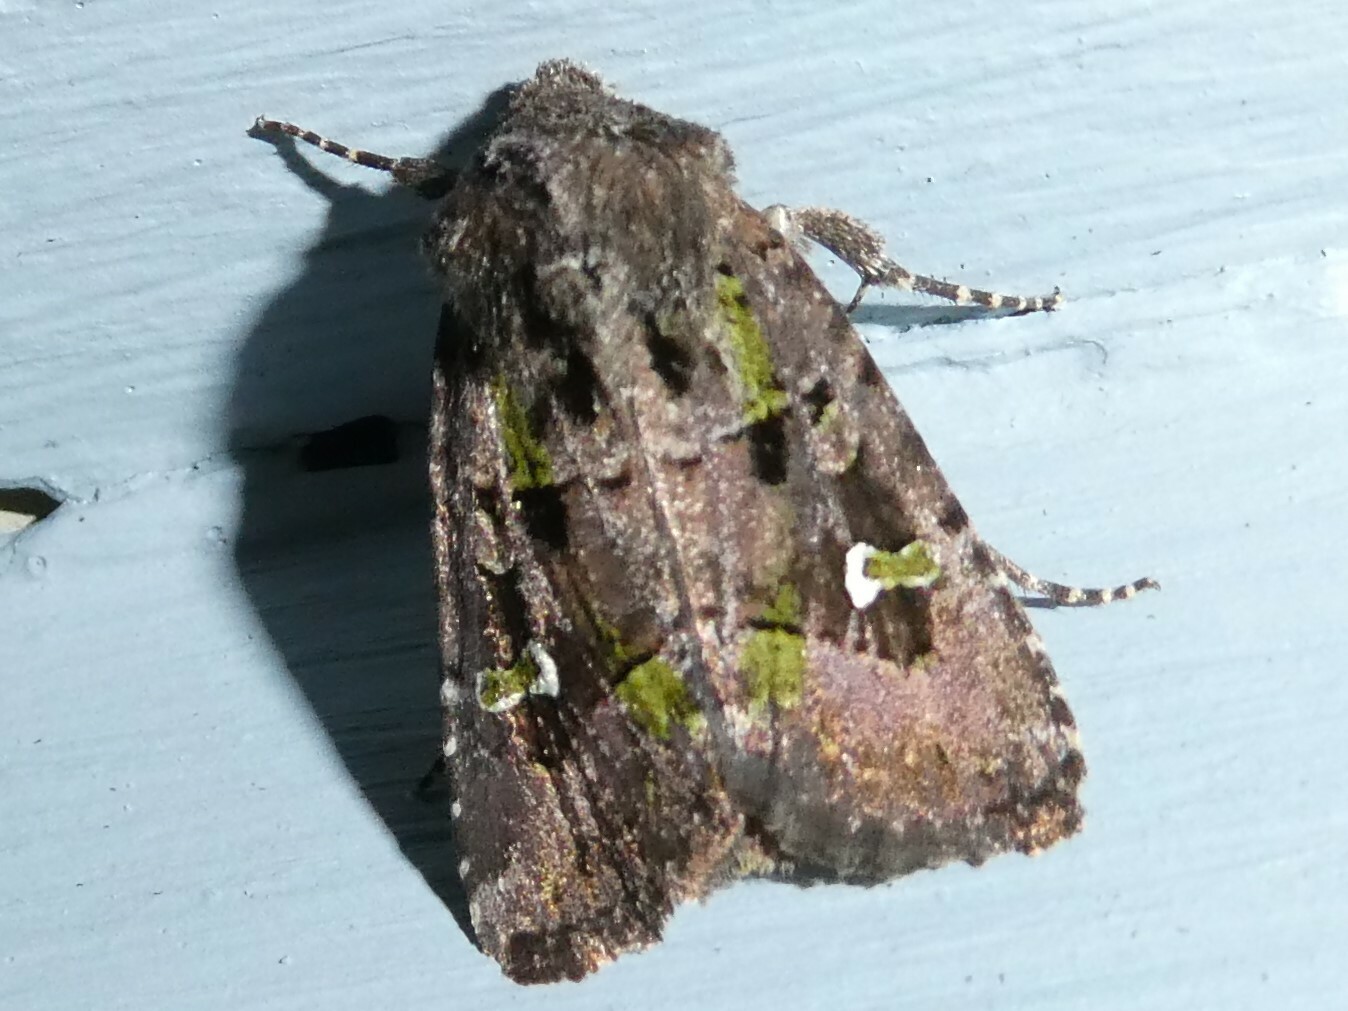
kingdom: Animalia
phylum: Arthropoda
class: Insecta
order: Lepidoptera
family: Noctuidae
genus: Lacinipolia
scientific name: Lacinipolia renigera
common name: Kidney-spotted minor
